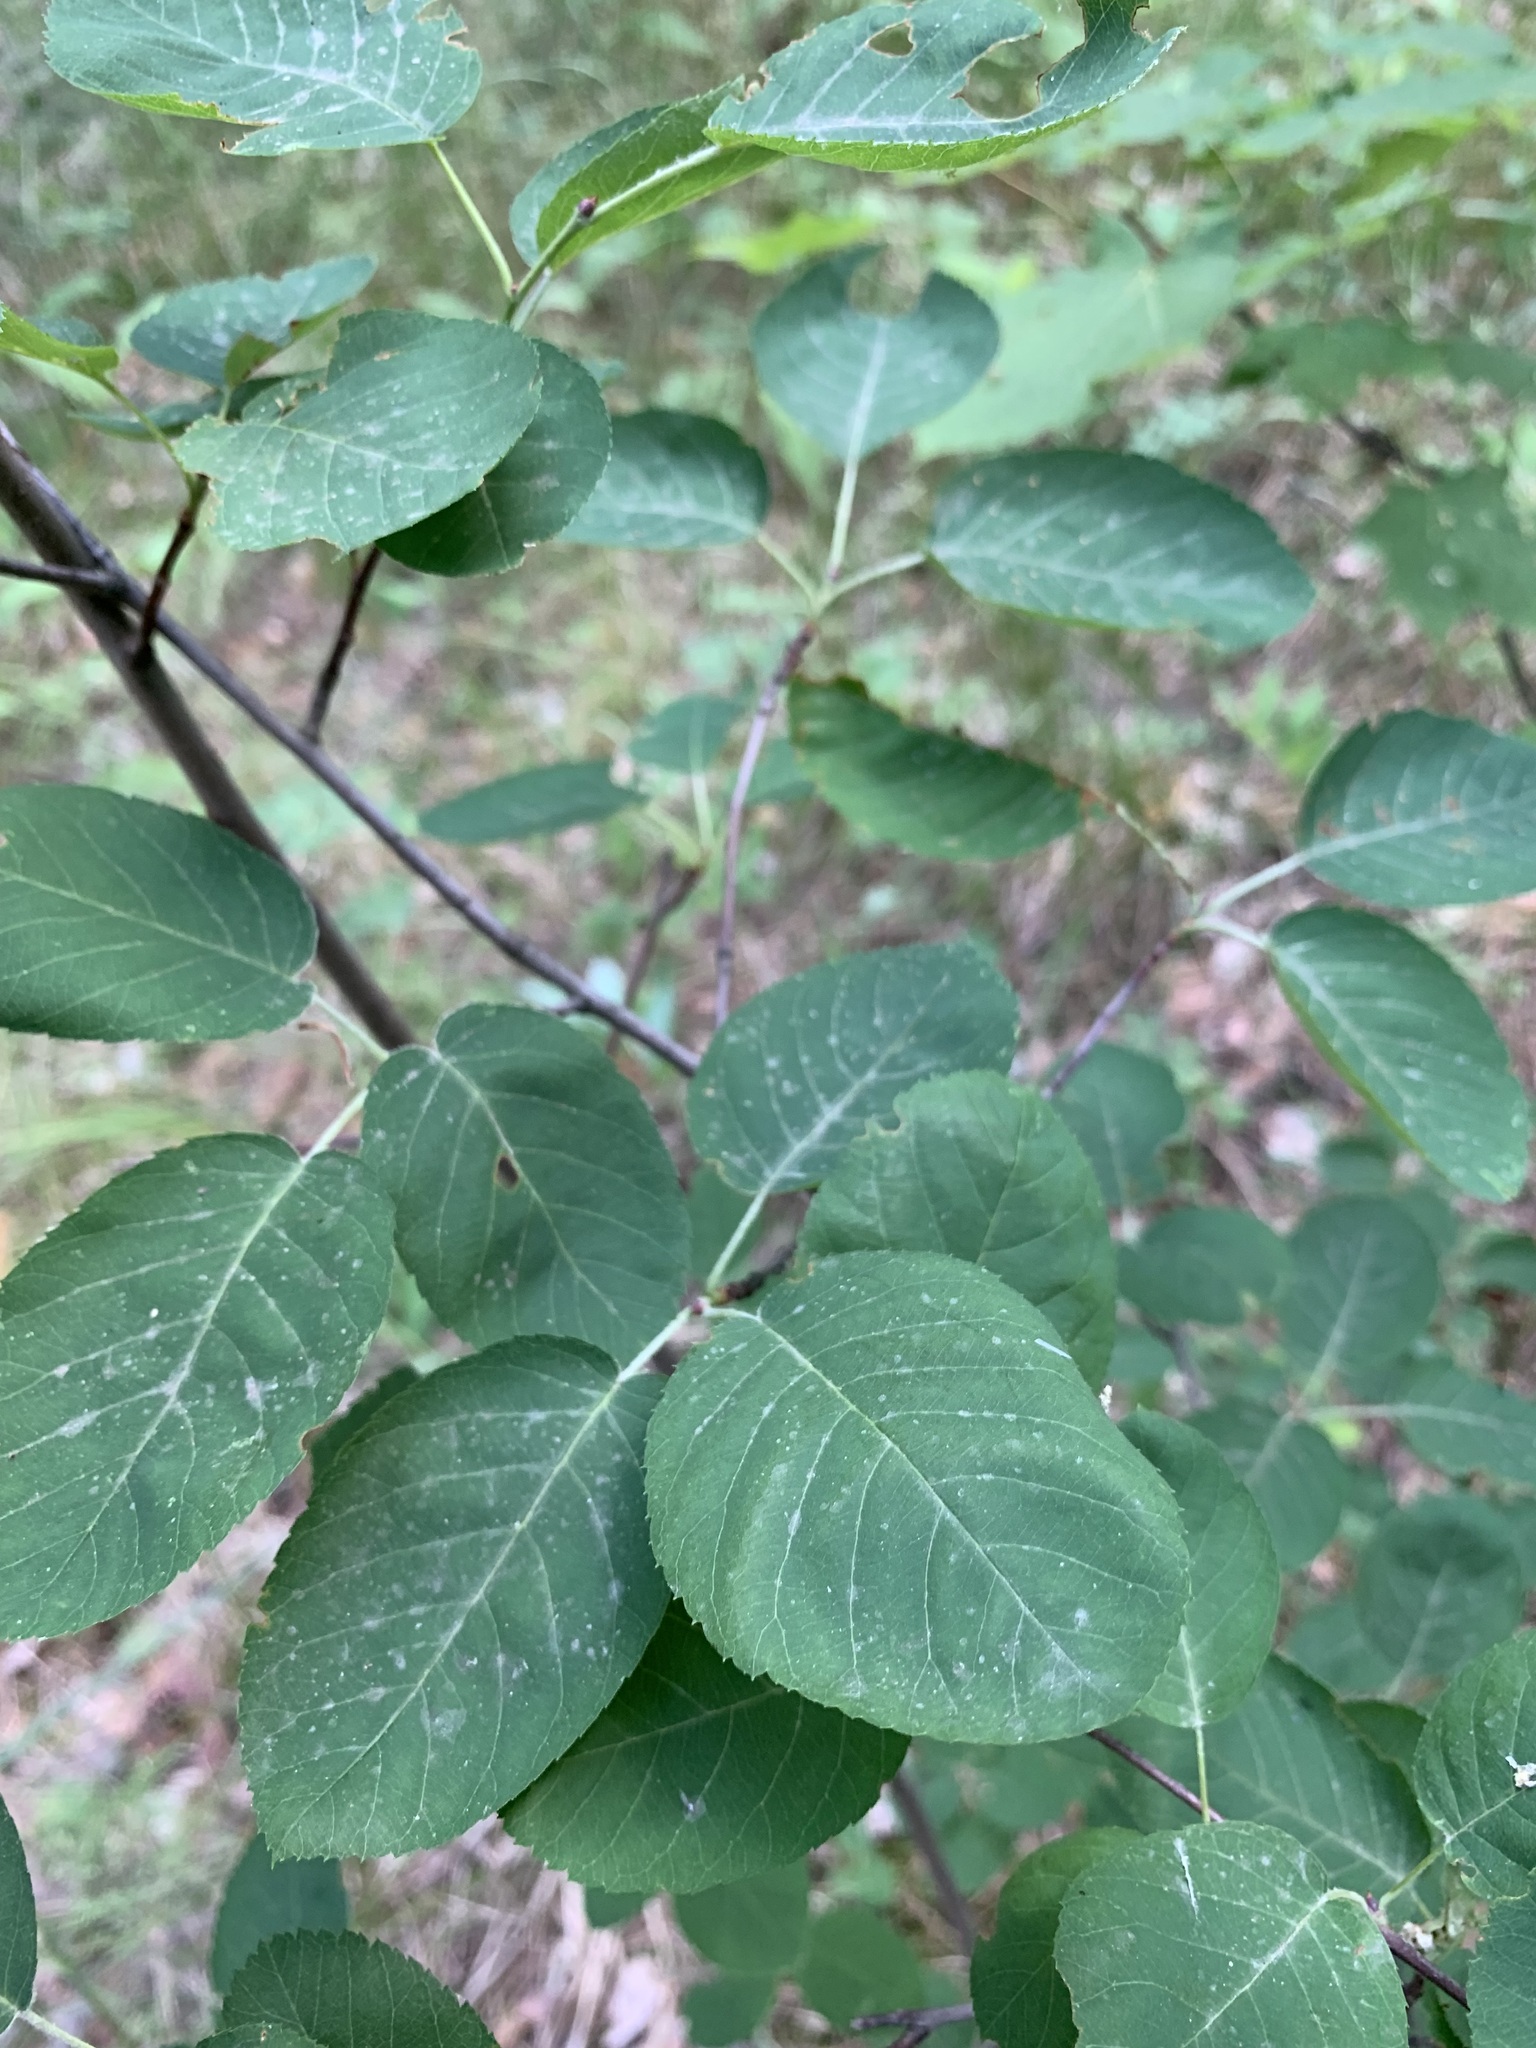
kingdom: Plantae
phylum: Tracheophyta
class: Magnoliopsida
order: Rosales
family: Rosaceae
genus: Amelanchier
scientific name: Amelanchier
